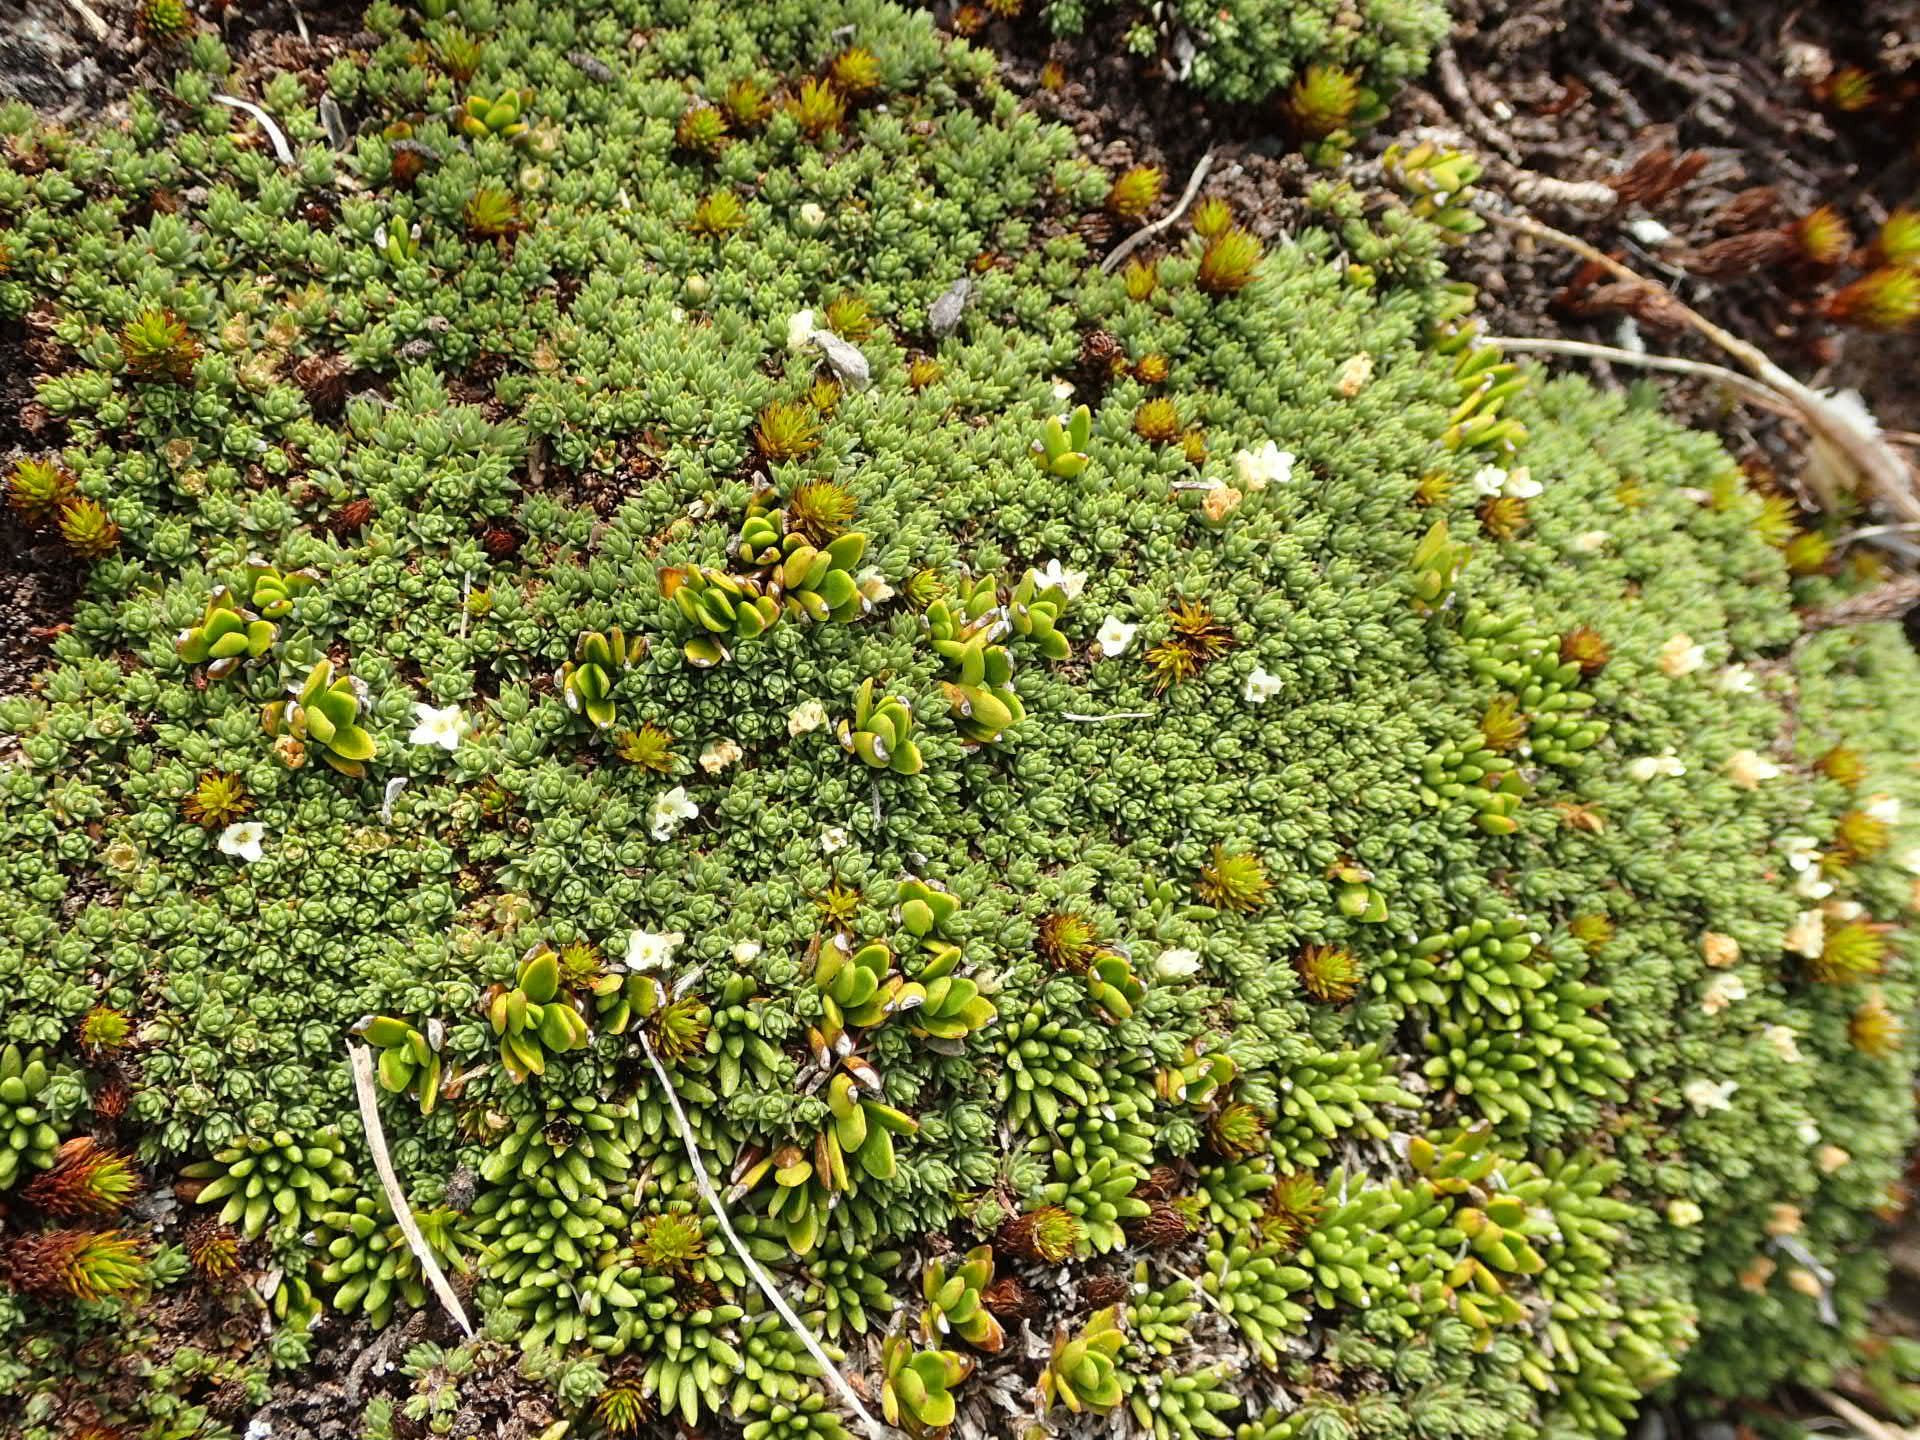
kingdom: Plantae
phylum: Tracheophyta
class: Magnoliopsida
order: Malvales
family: Thymelaeaceae
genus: Kelleria
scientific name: Kelleria childii
